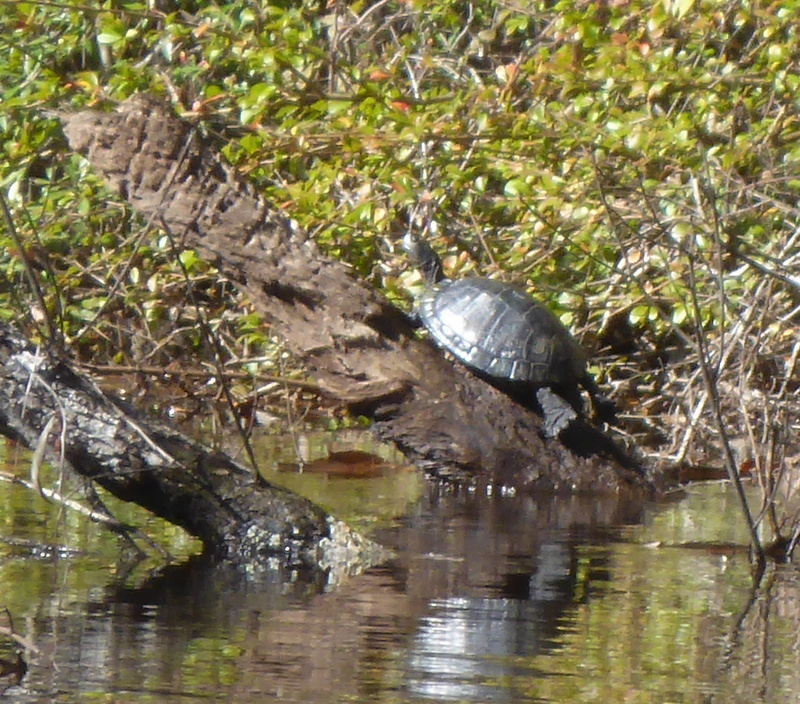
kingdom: Animalia
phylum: Chordata
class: Testudines
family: Emydidae
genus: Trachemys
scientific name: Trachemys scripta
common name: Slider
